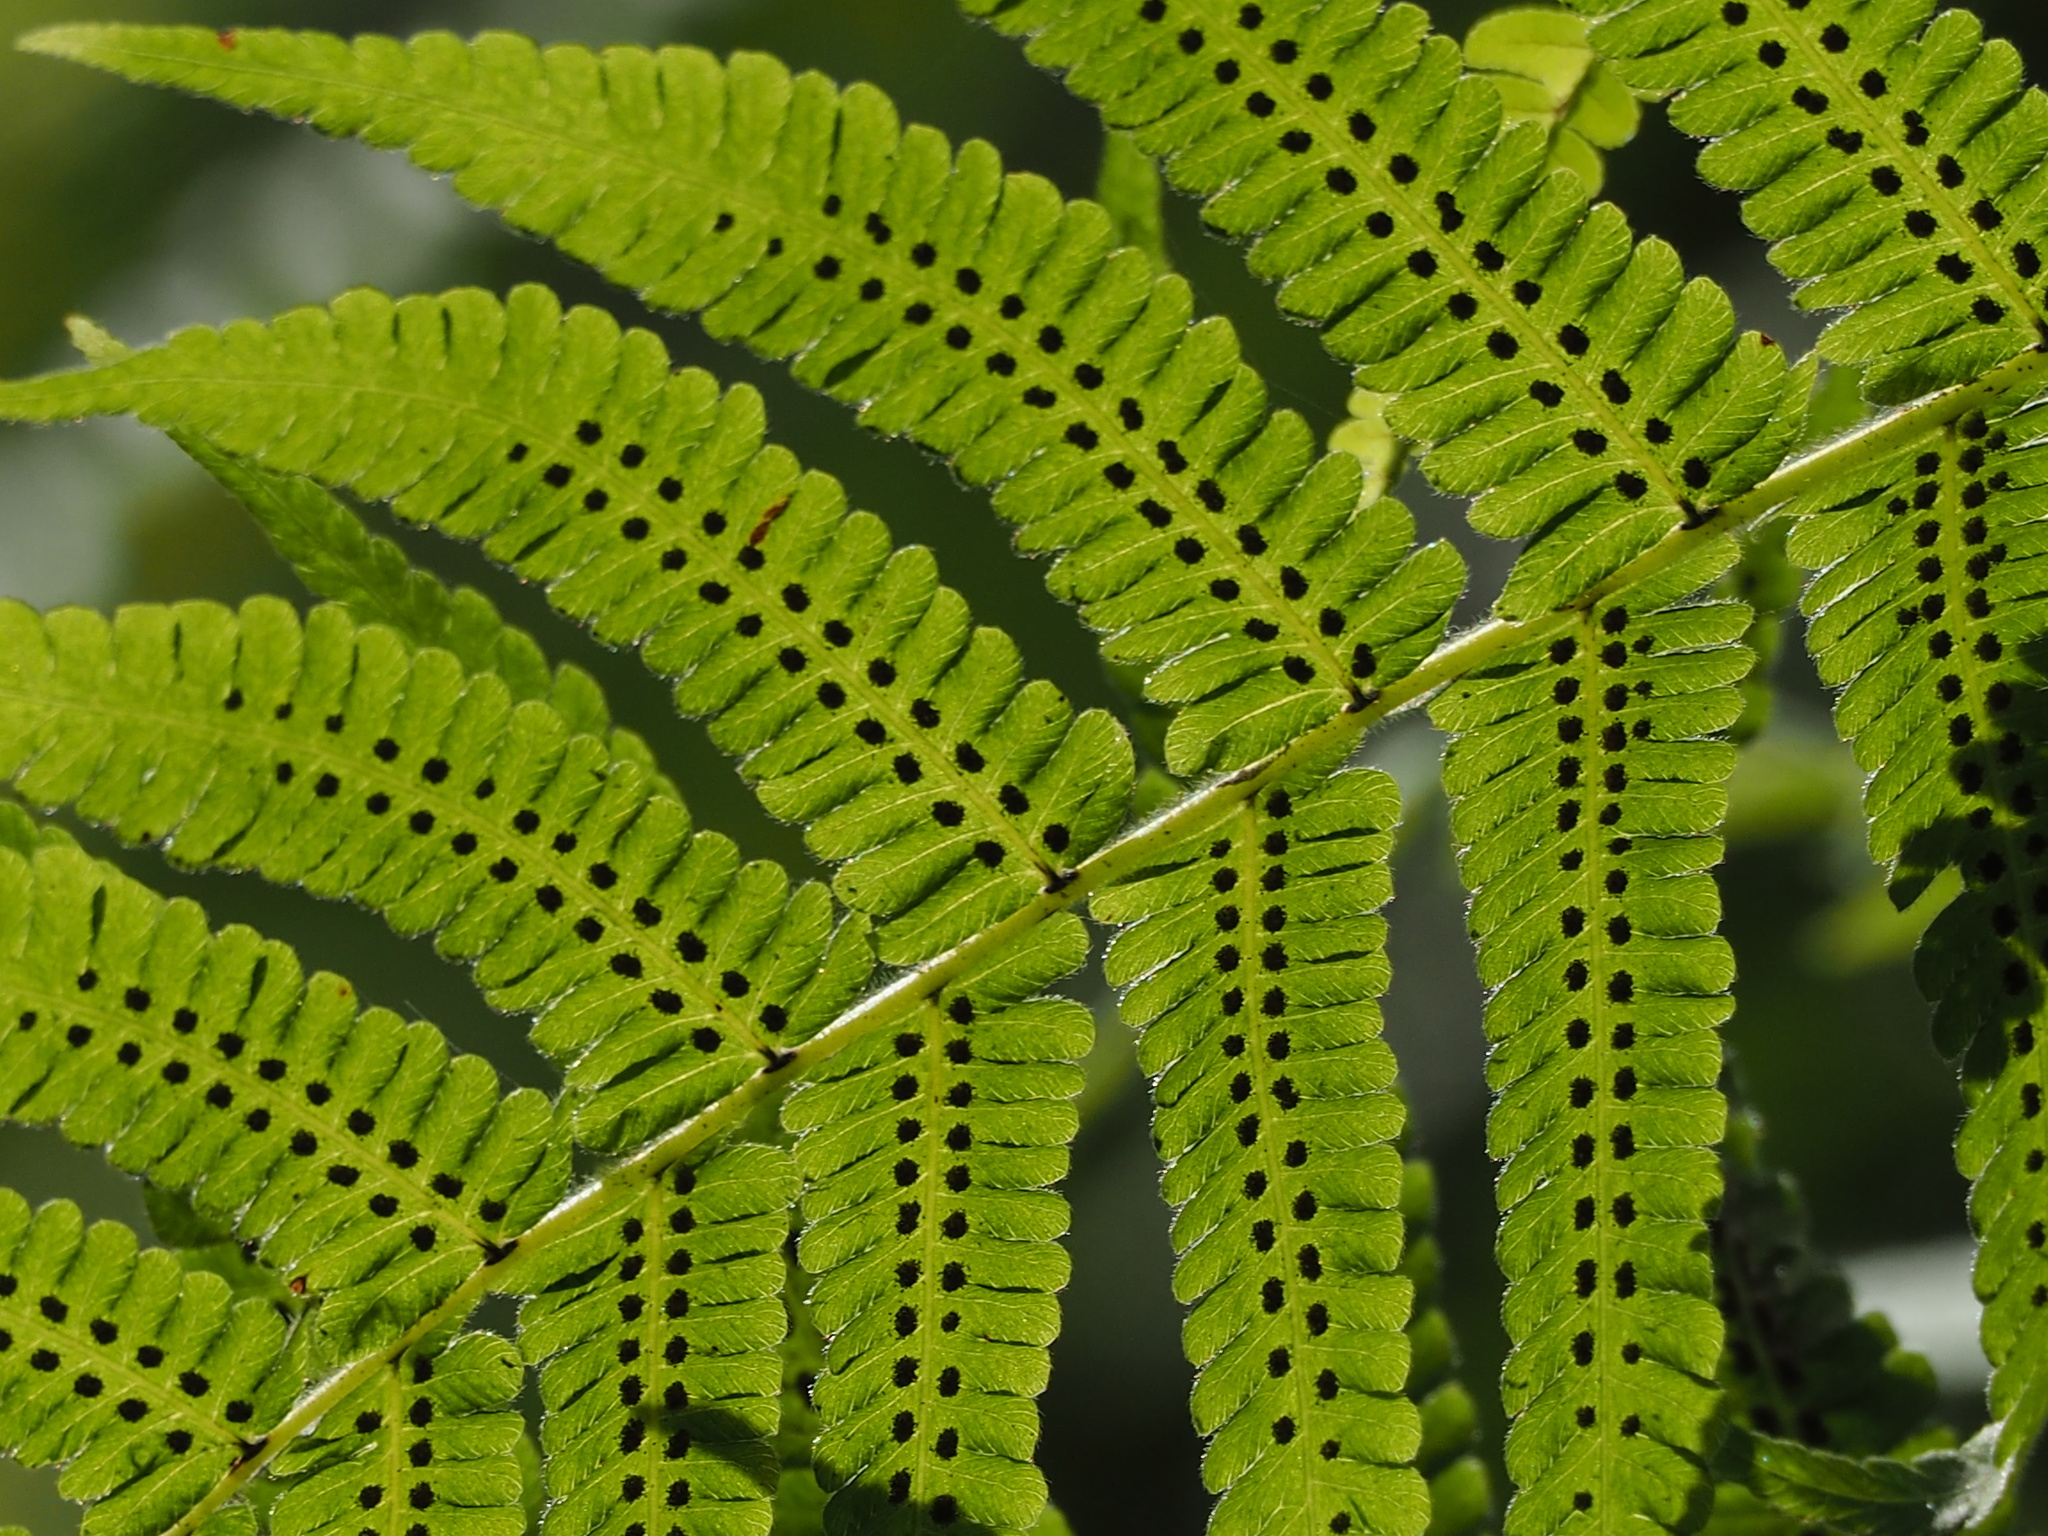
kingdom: Plantae
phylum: Tracheophyta
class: Polypodiopsida
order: Polypodiales
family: Thelypteridaceae
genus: Christella
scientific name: Christella parasitica
